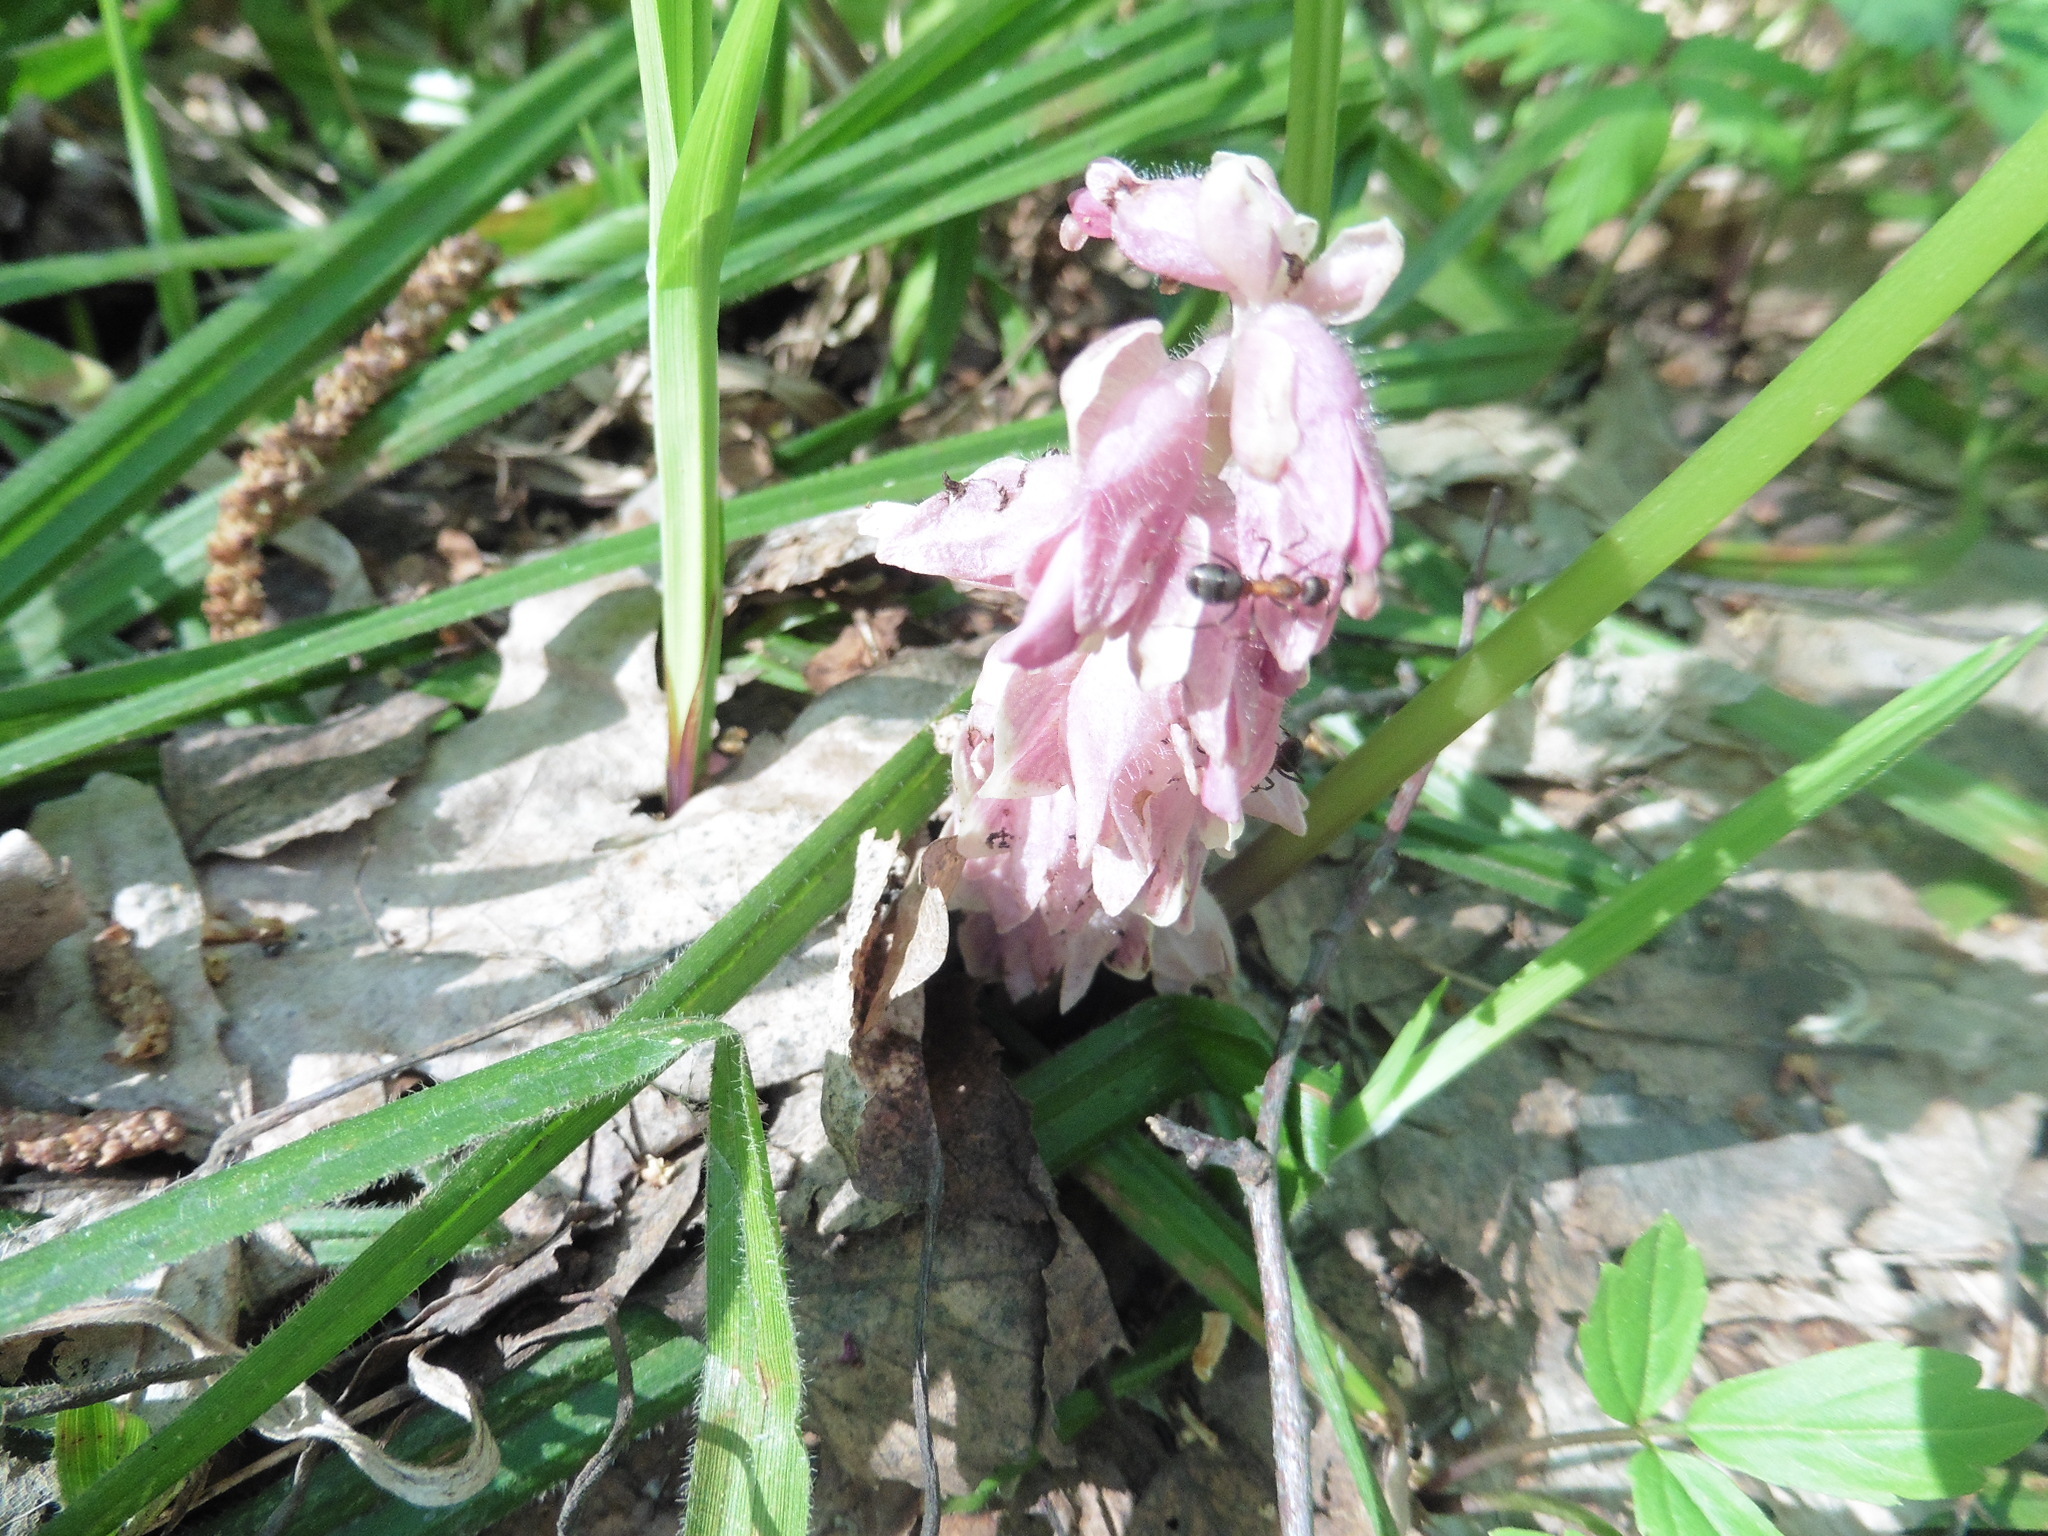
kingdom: Plantae
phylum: Tracheophyta
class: Magnoliopsida
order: Lamiales
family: Orobanchaceae
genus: Lathraea
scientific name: Lathraea squamaria
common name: Toothwort
